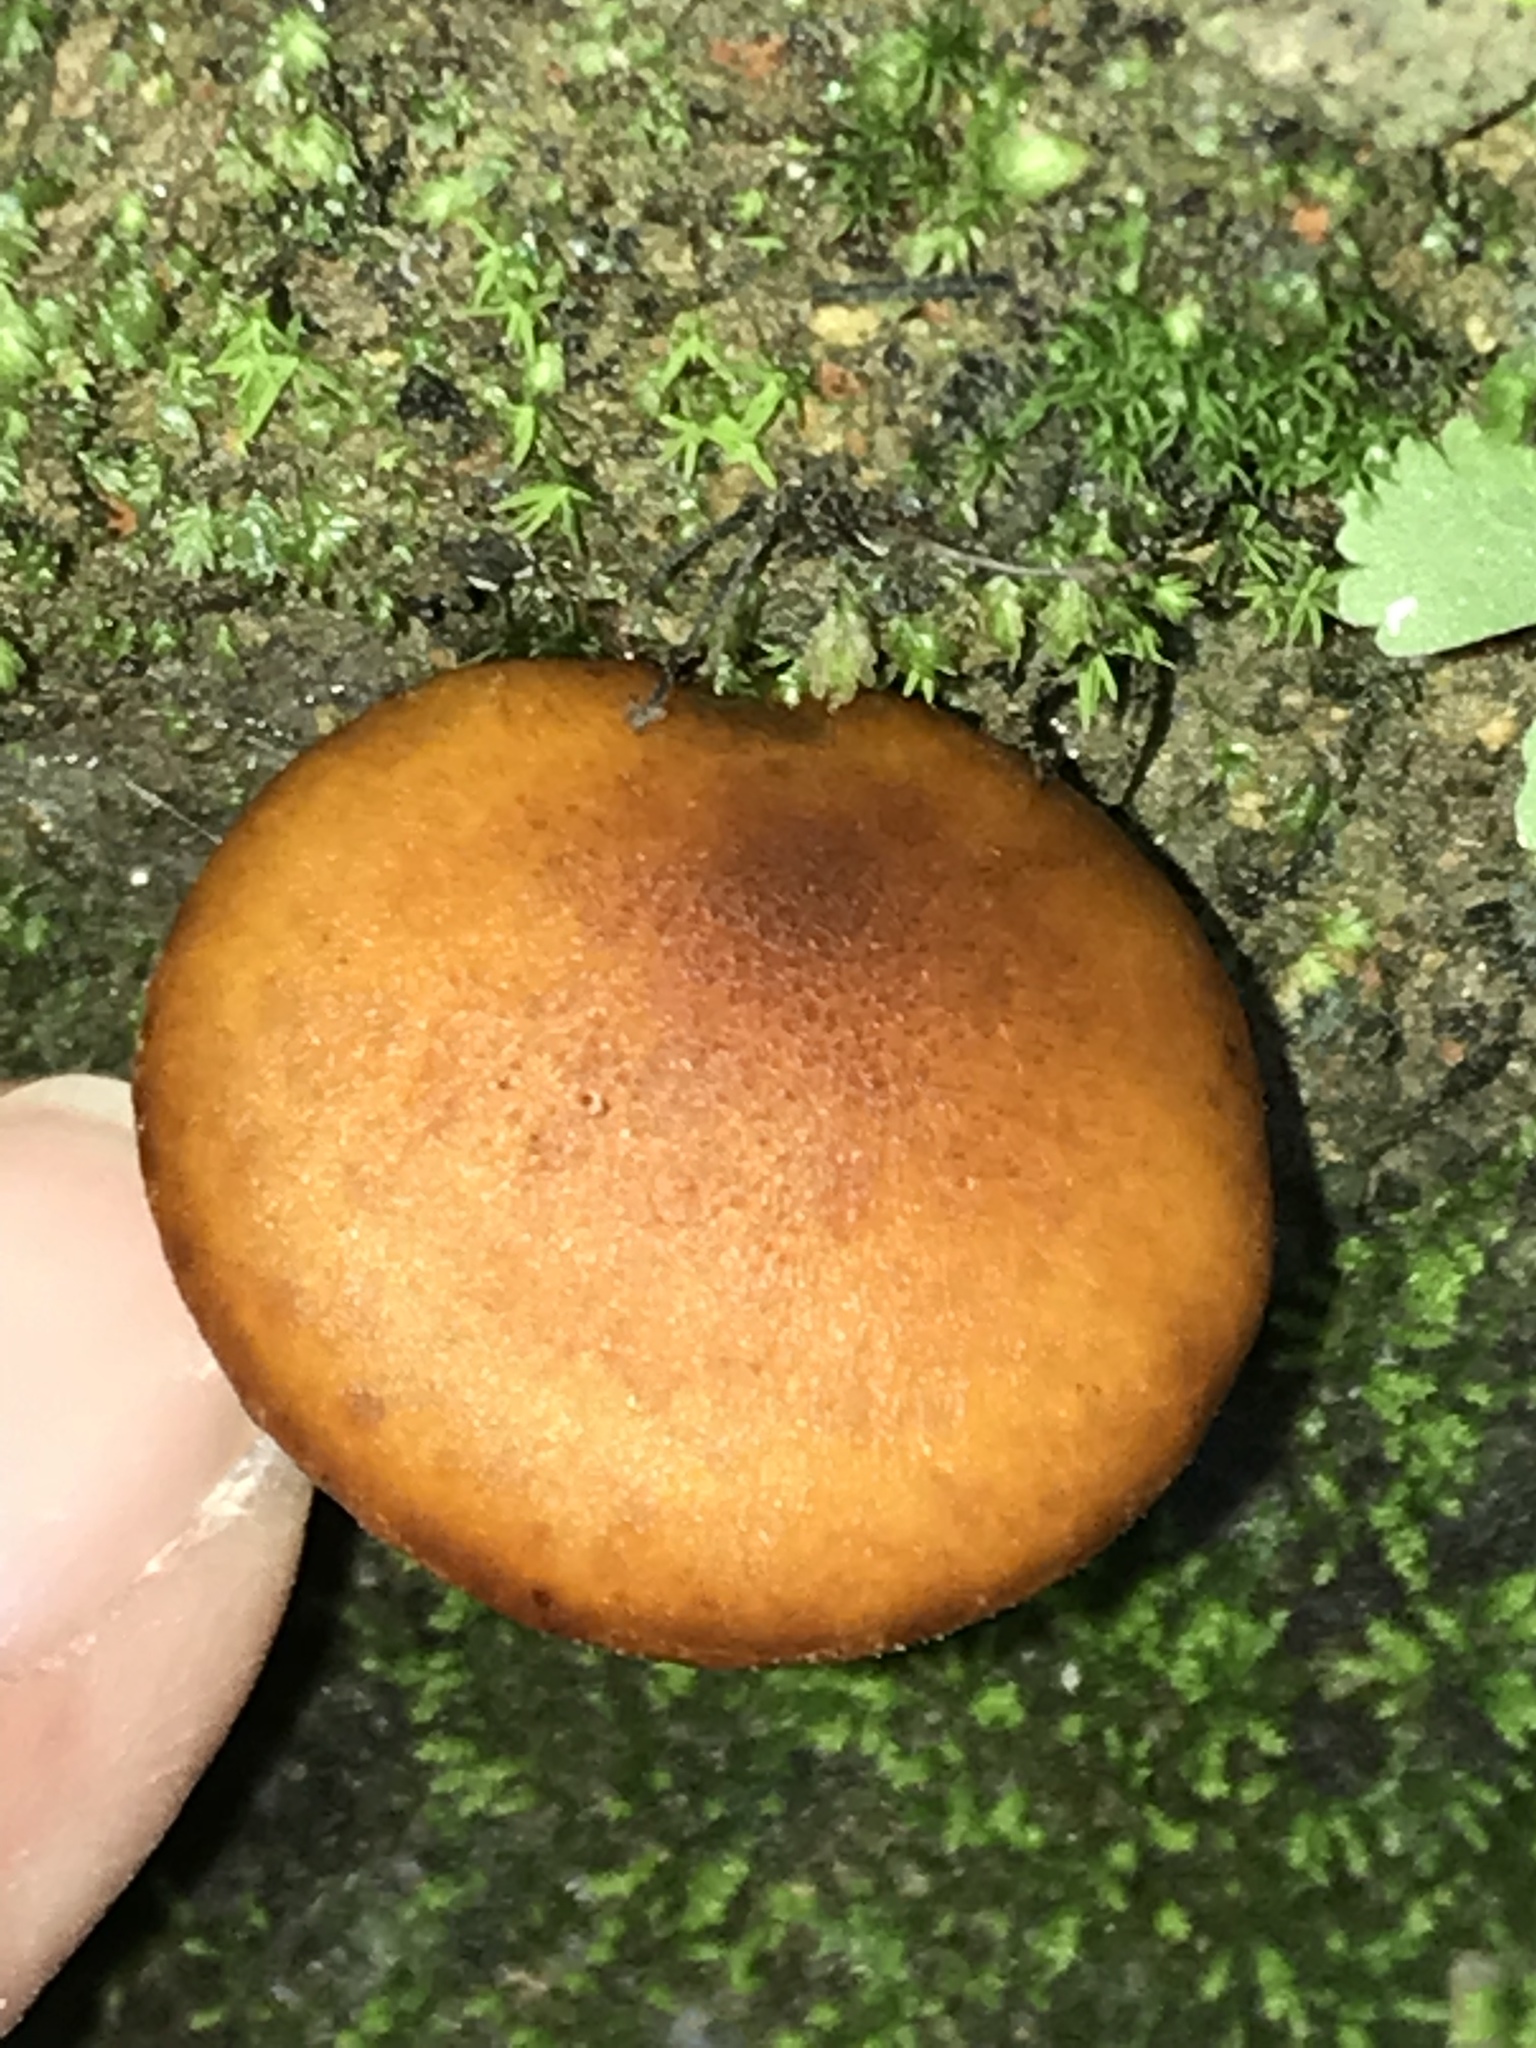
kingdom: Fungi
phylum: Basidiomycota
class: Agaricomycetes
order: Agaricales
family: Omphalotaceae
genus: Omphalotus
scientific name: Omphalotus illudens
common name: Jack o lantern
